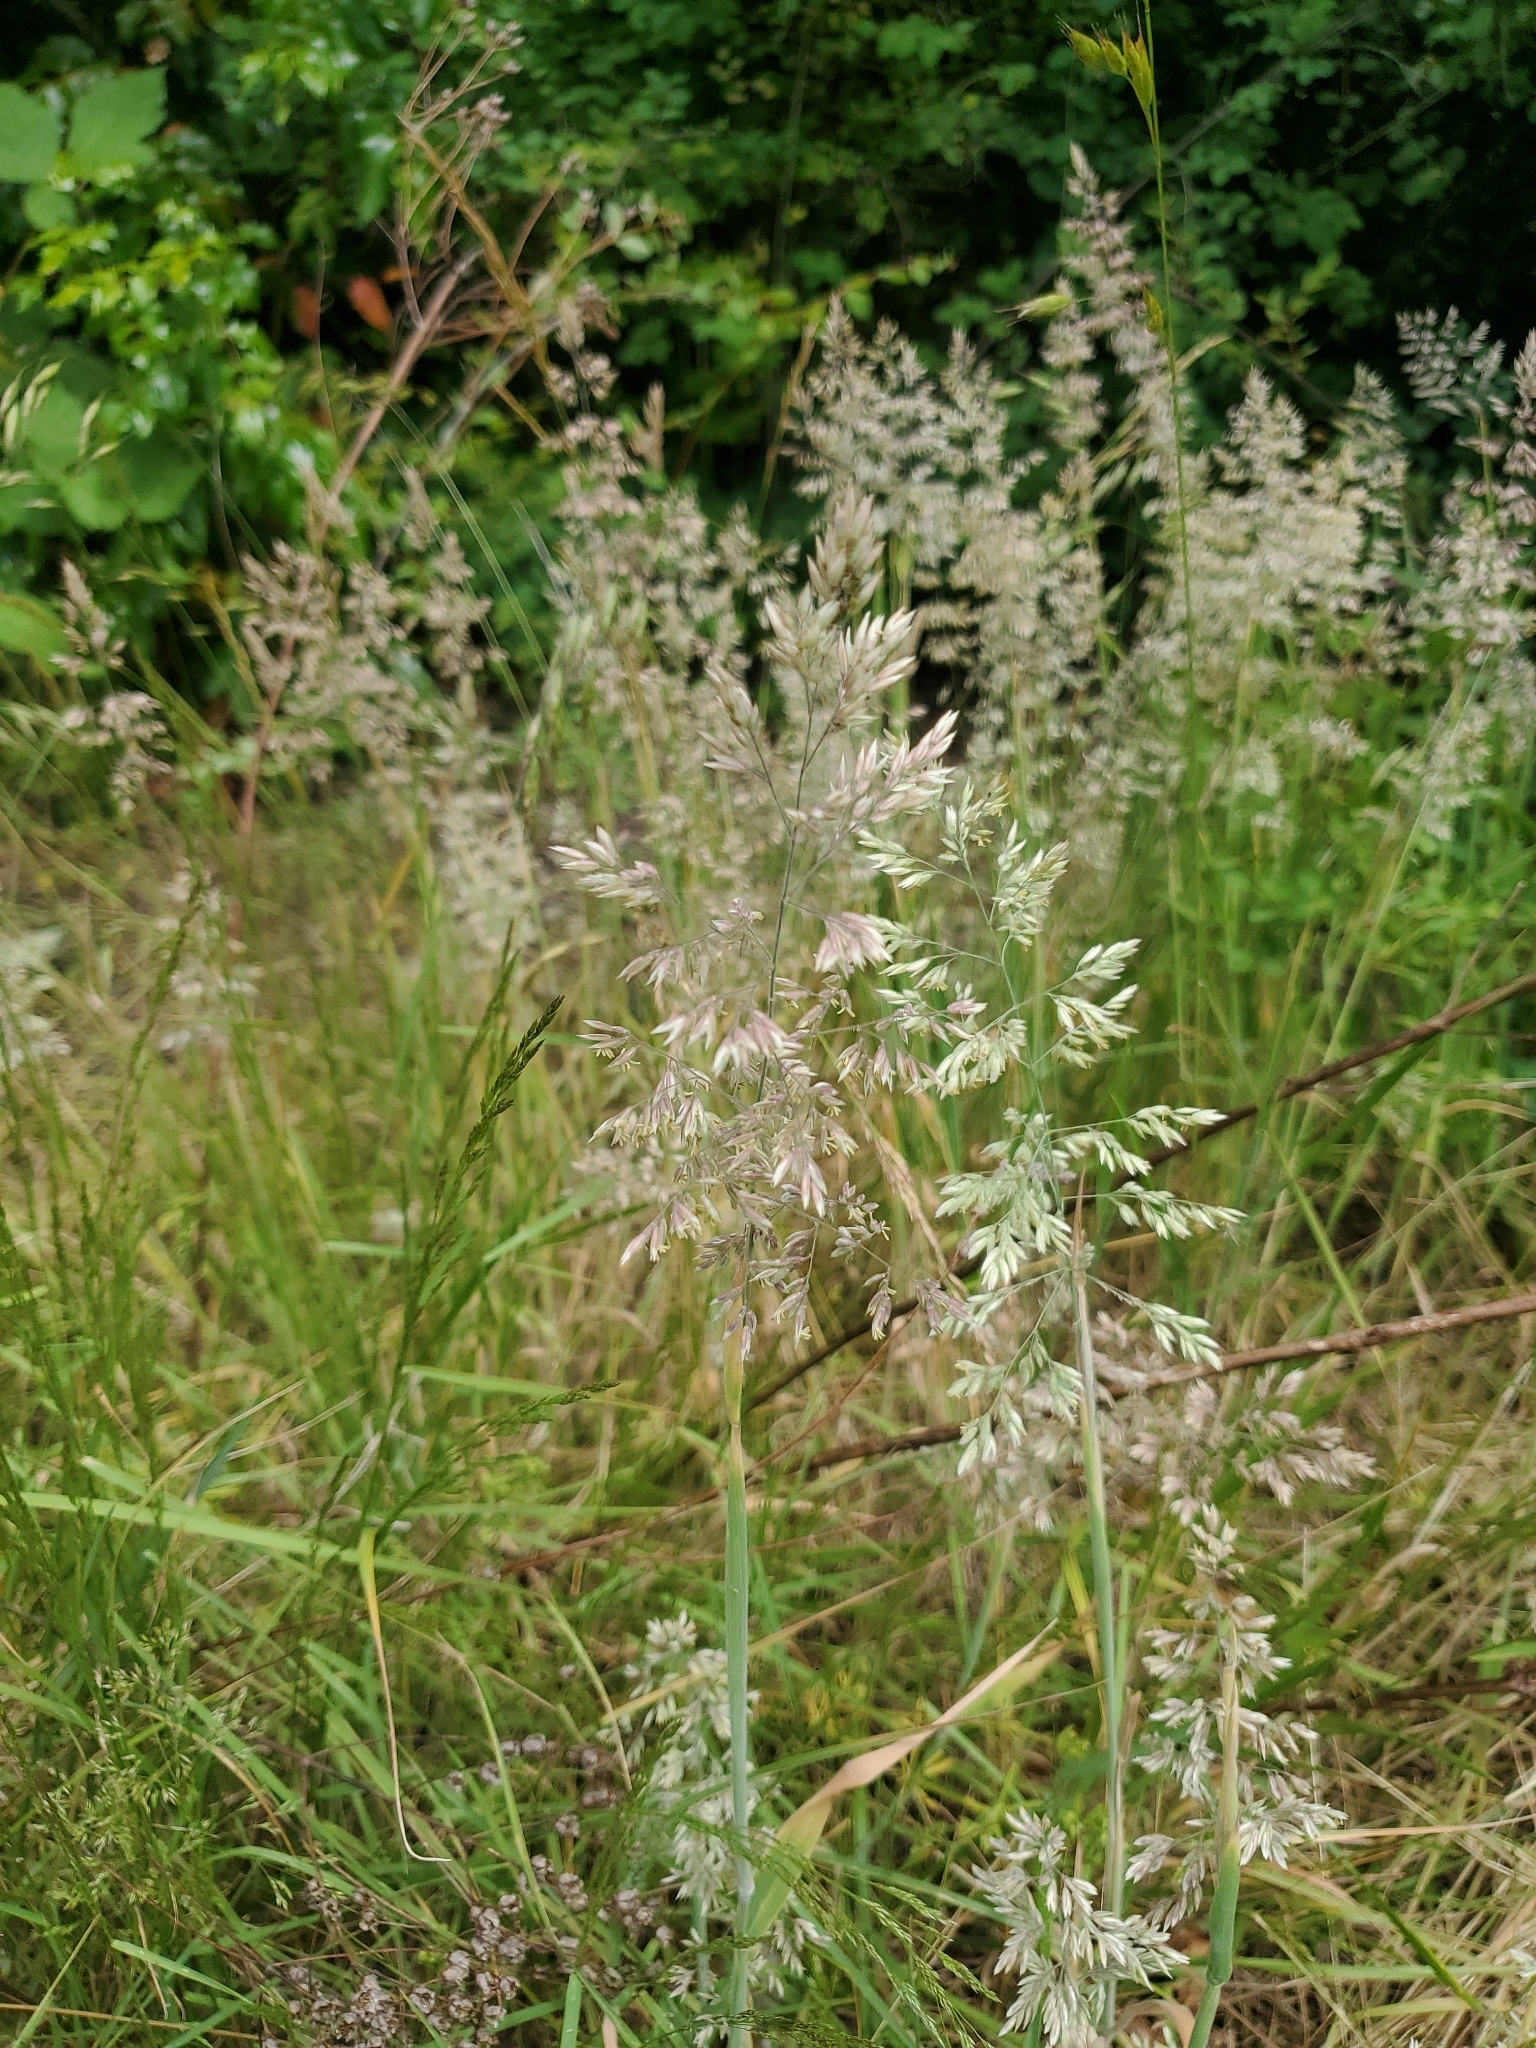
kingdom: Plantae
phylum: Tracheophyta
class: Liliopsida
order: Poales
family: Poaceae
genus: Holcus
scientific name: Holcus lanatus
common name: Yorkshire-fog
